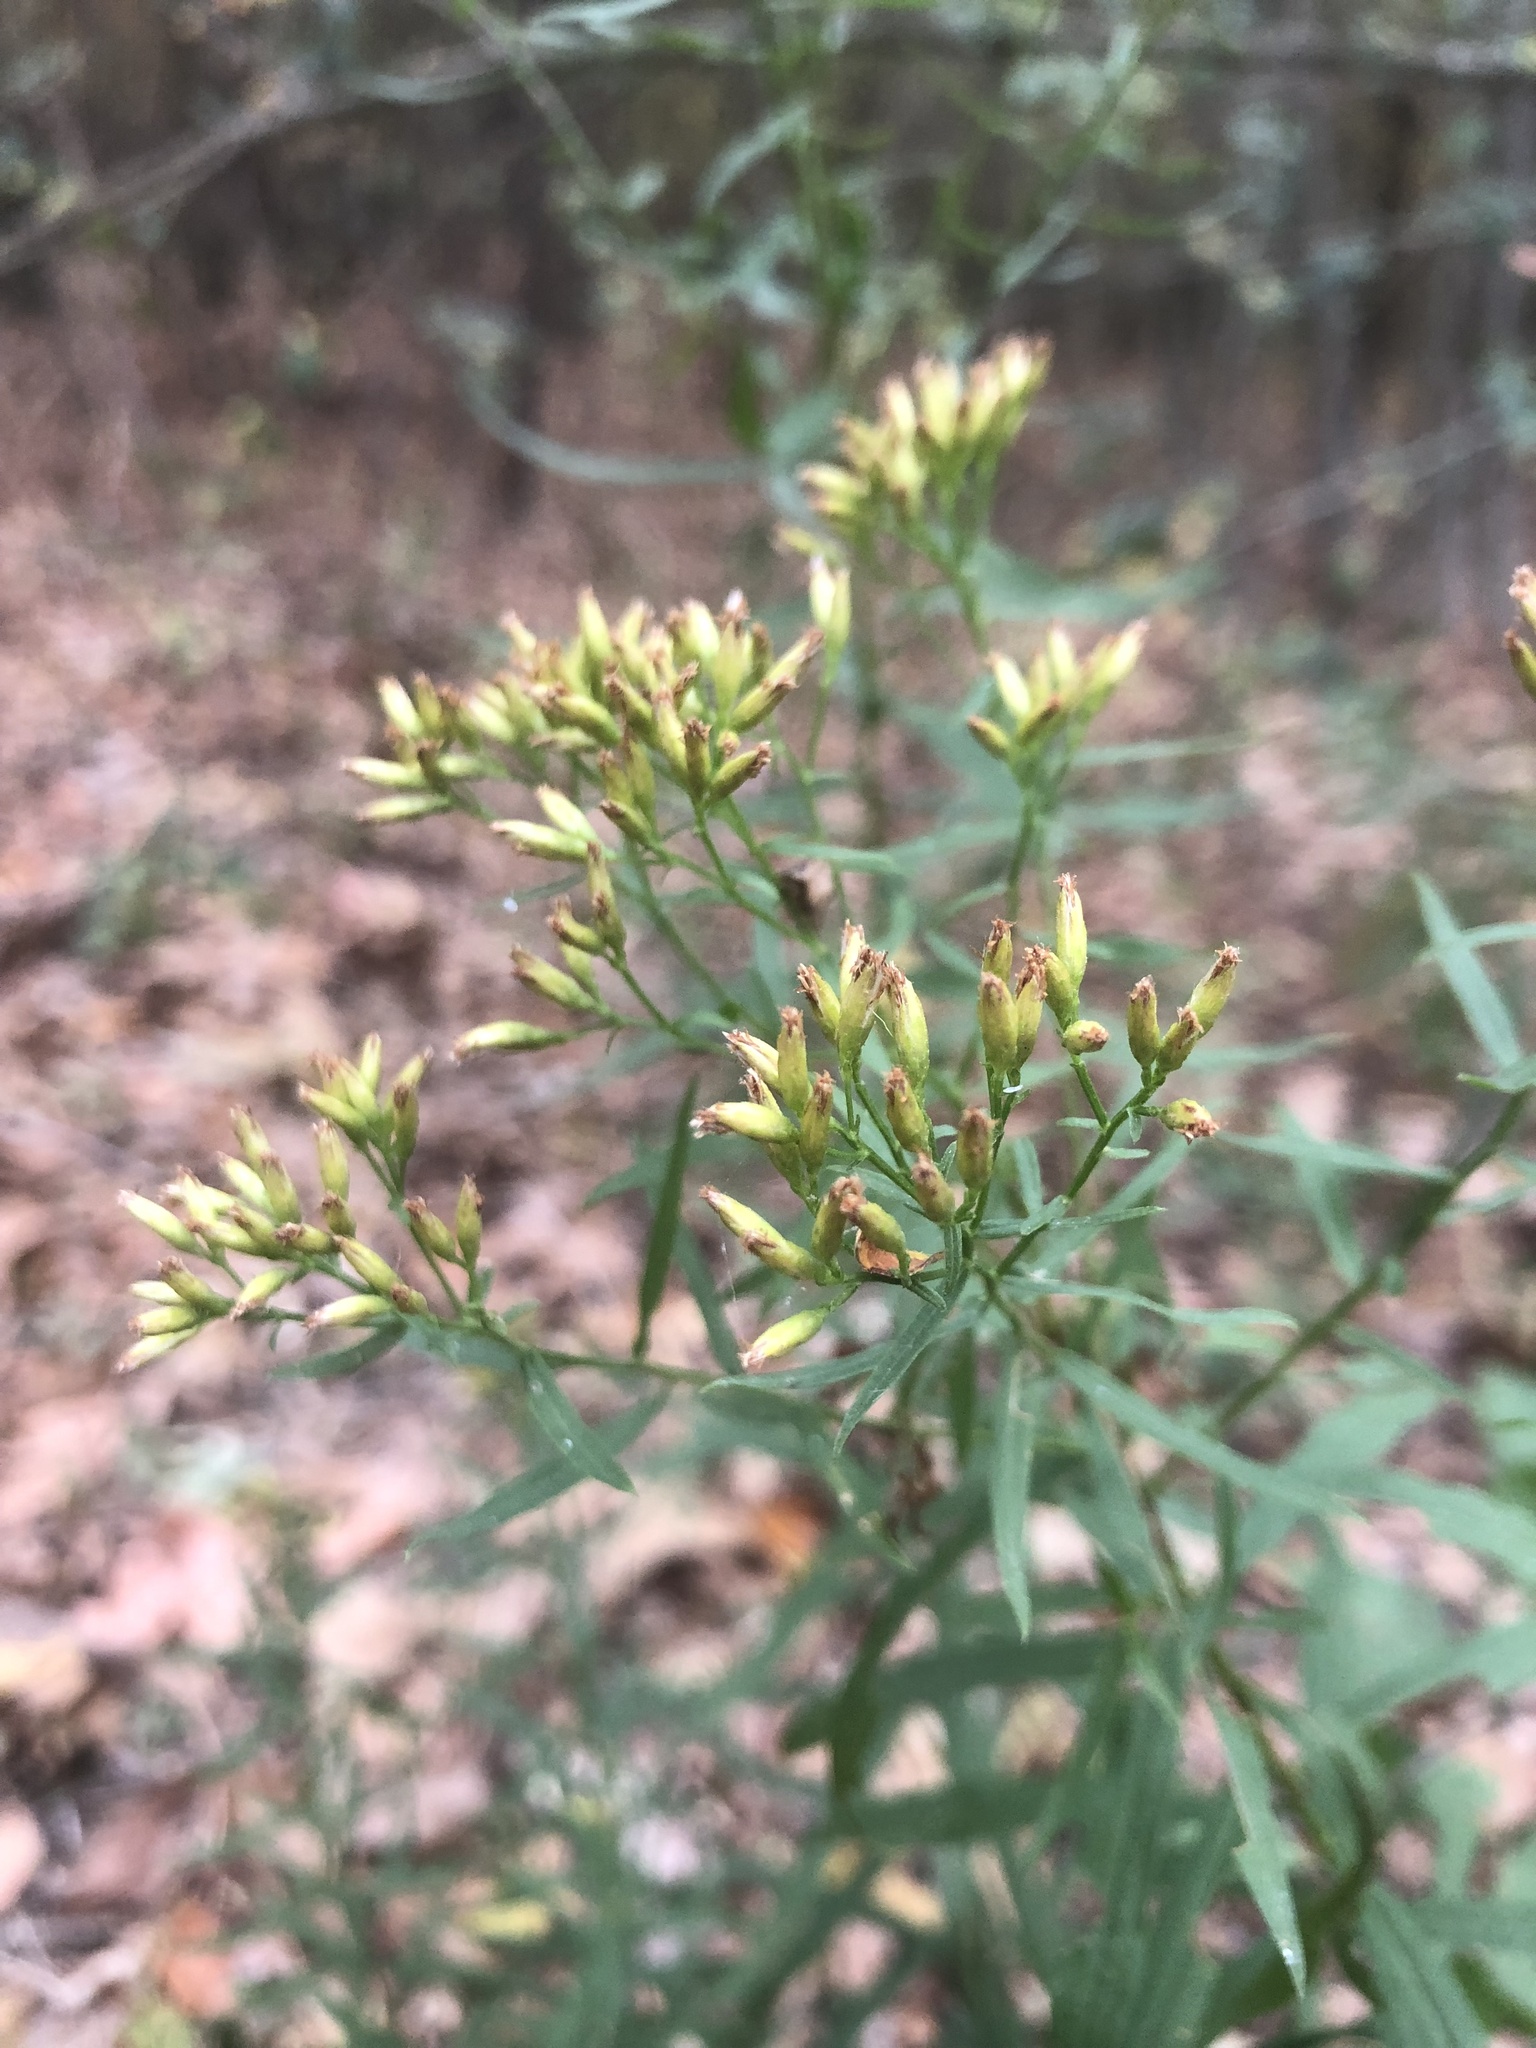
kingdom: Plantae
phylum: Tracheophyta
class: Magnoliopsida
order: Asterales
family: Asteraceae
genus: Euthamia
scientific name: Euthamia leptocephala
